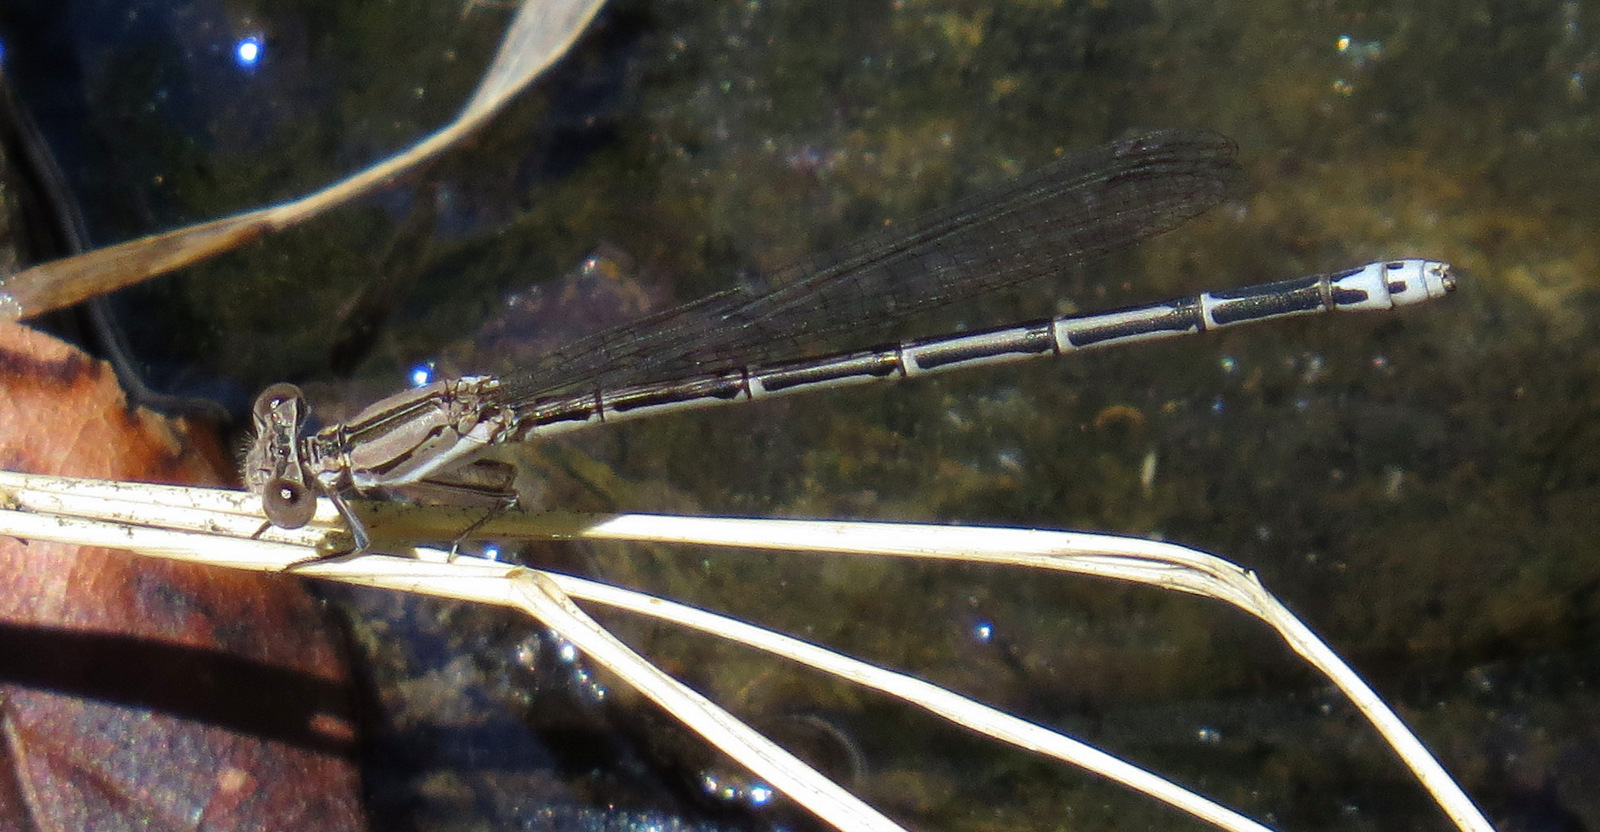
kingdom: Animalia
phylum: Arthropoda
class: Insecta
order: Odonata
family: Coenagrionidae
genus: Argia
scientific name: Argia hinei
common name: Lavender dancer
